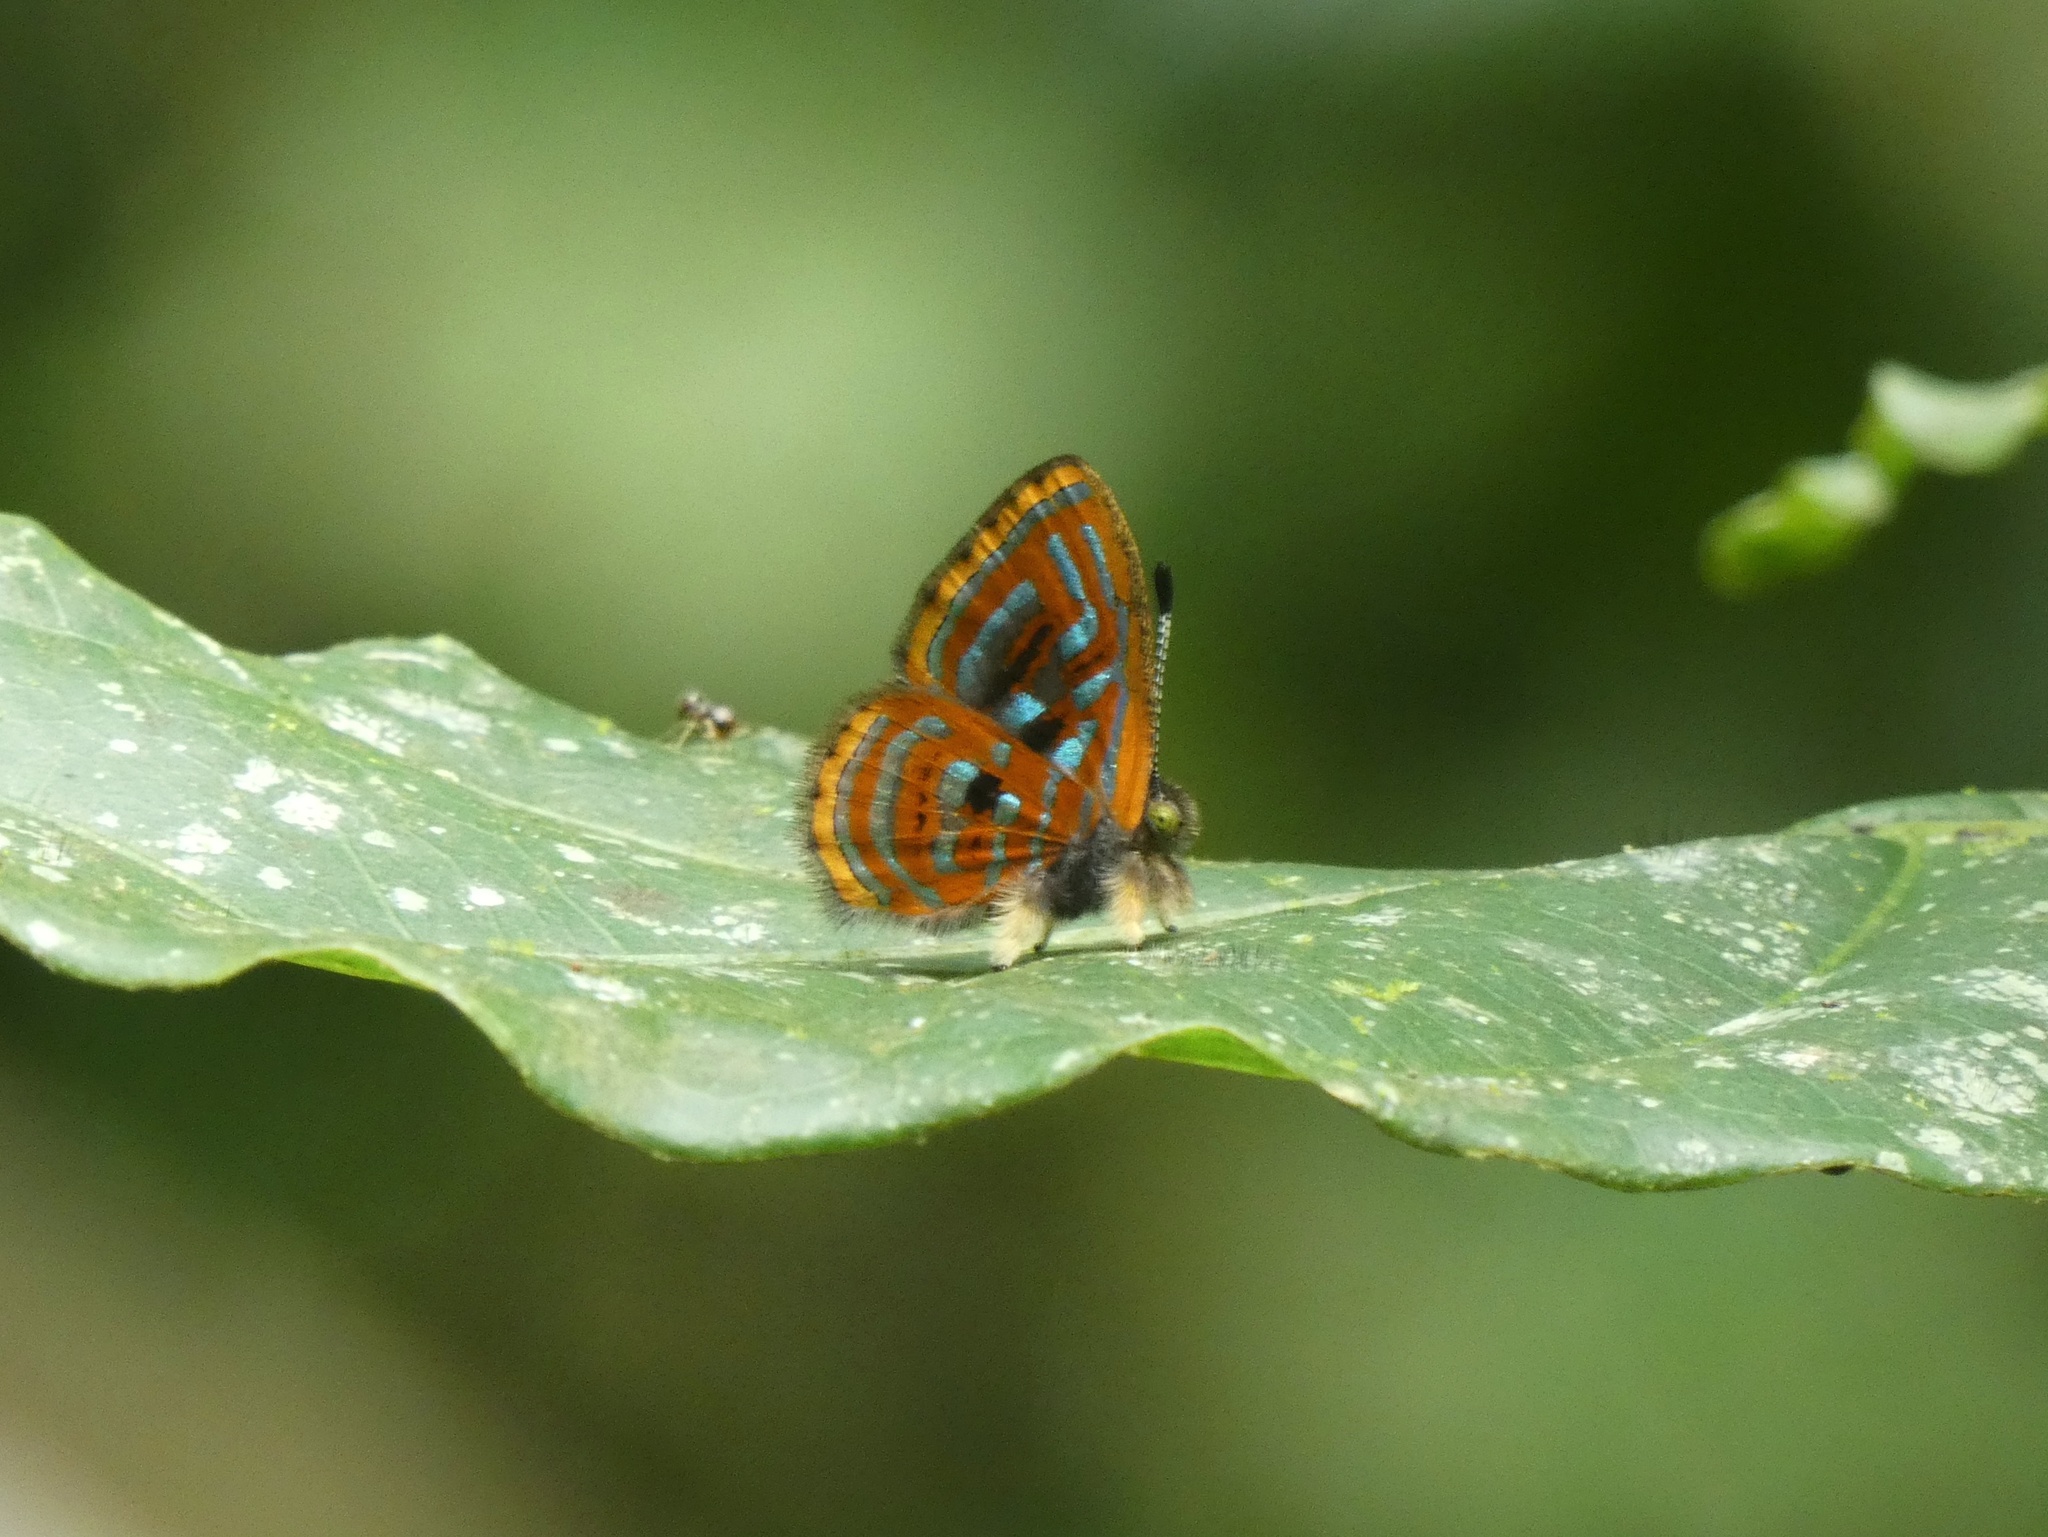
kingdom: Animalia
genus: Charis
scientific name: Charis Sarota acantus
